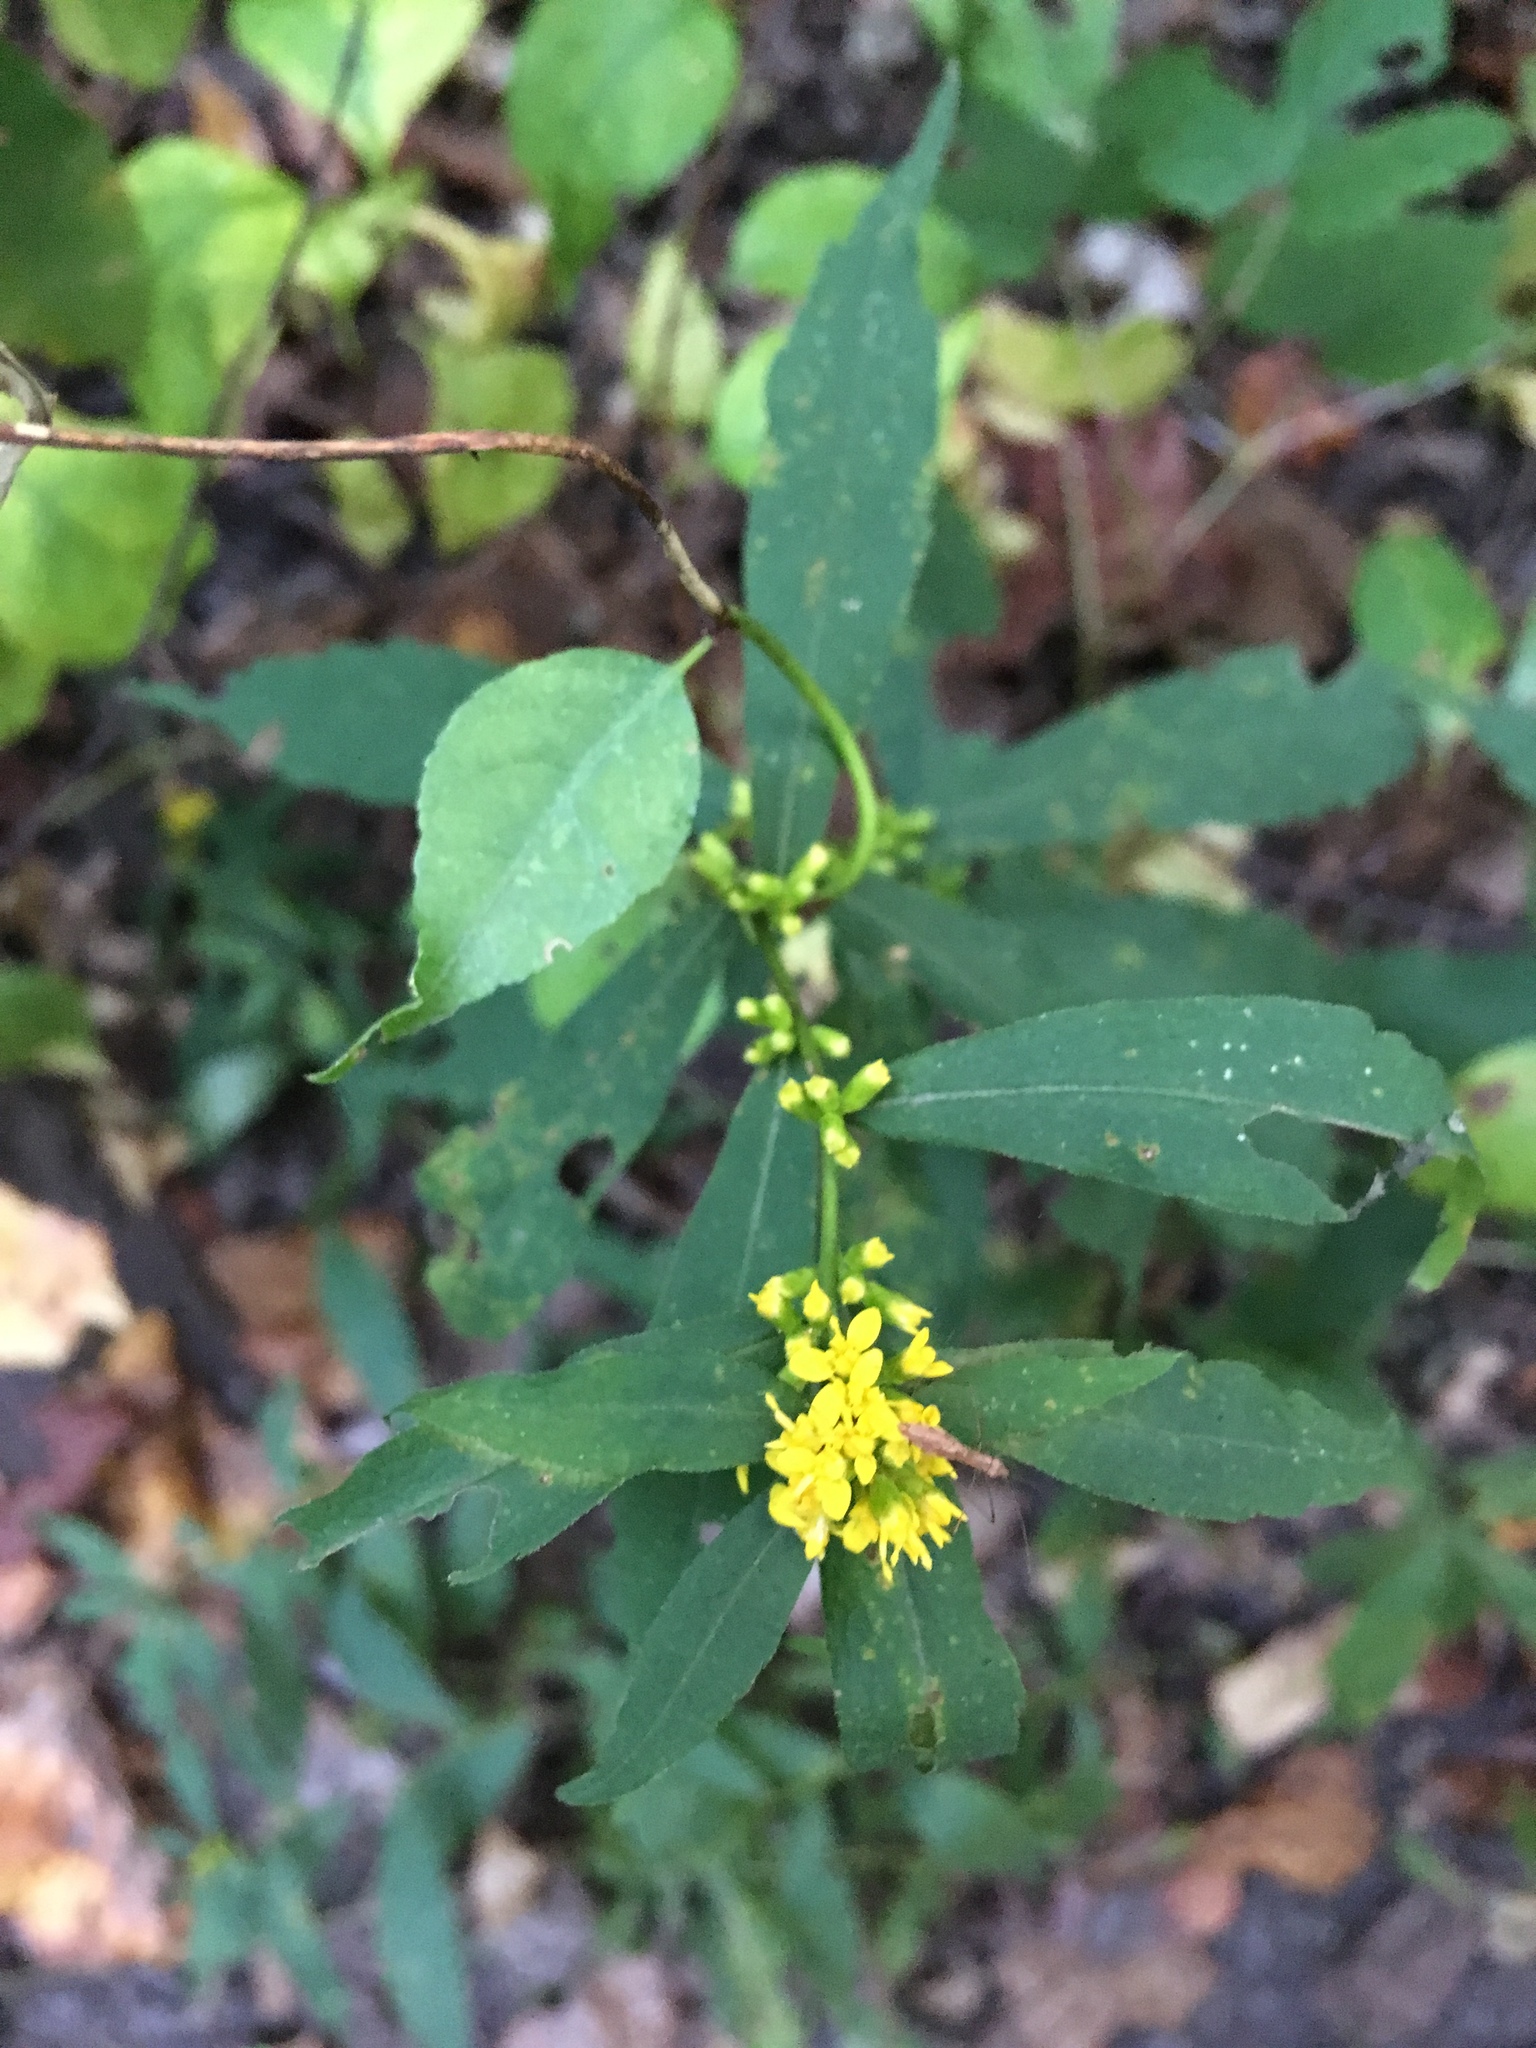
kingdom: Plantae
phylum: Tracheophyta
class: Magnoliopsida
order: Asterales
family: Asteraceae
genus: Solidago
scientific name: Solidago caesia
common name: Woodland goldenrod
